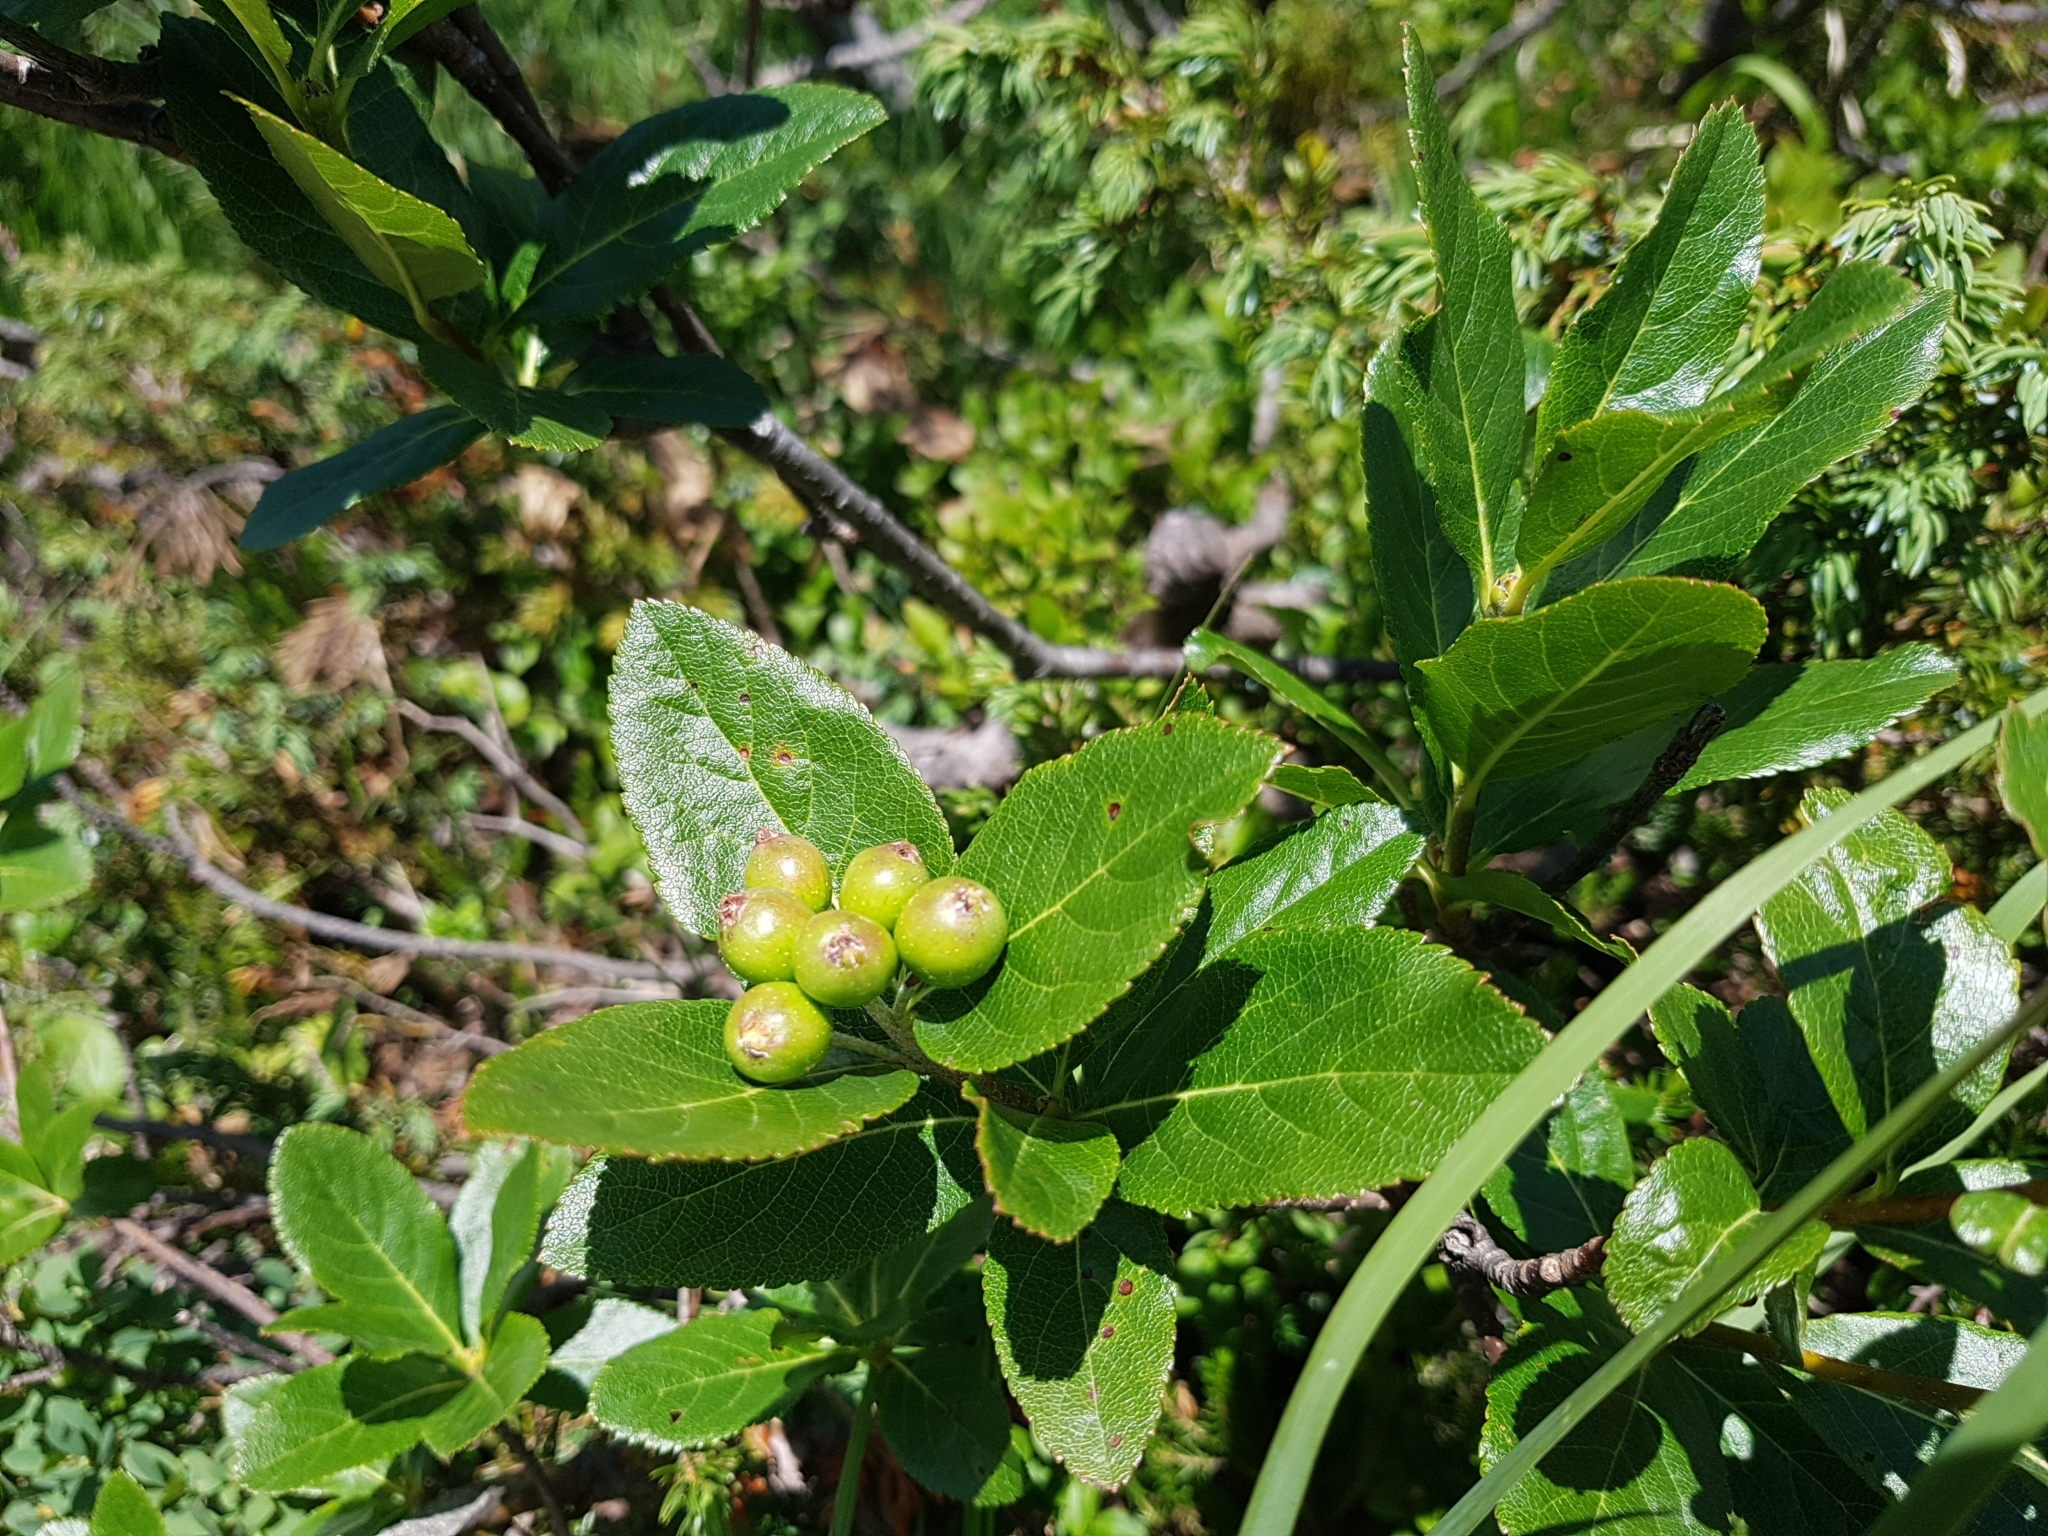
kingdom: Plantae
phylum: Tracheophyta
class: Magnoliopsida
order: Rosales
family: Rosaceae
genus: Chamaemespilus
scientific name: Chamaemespilus alpina
